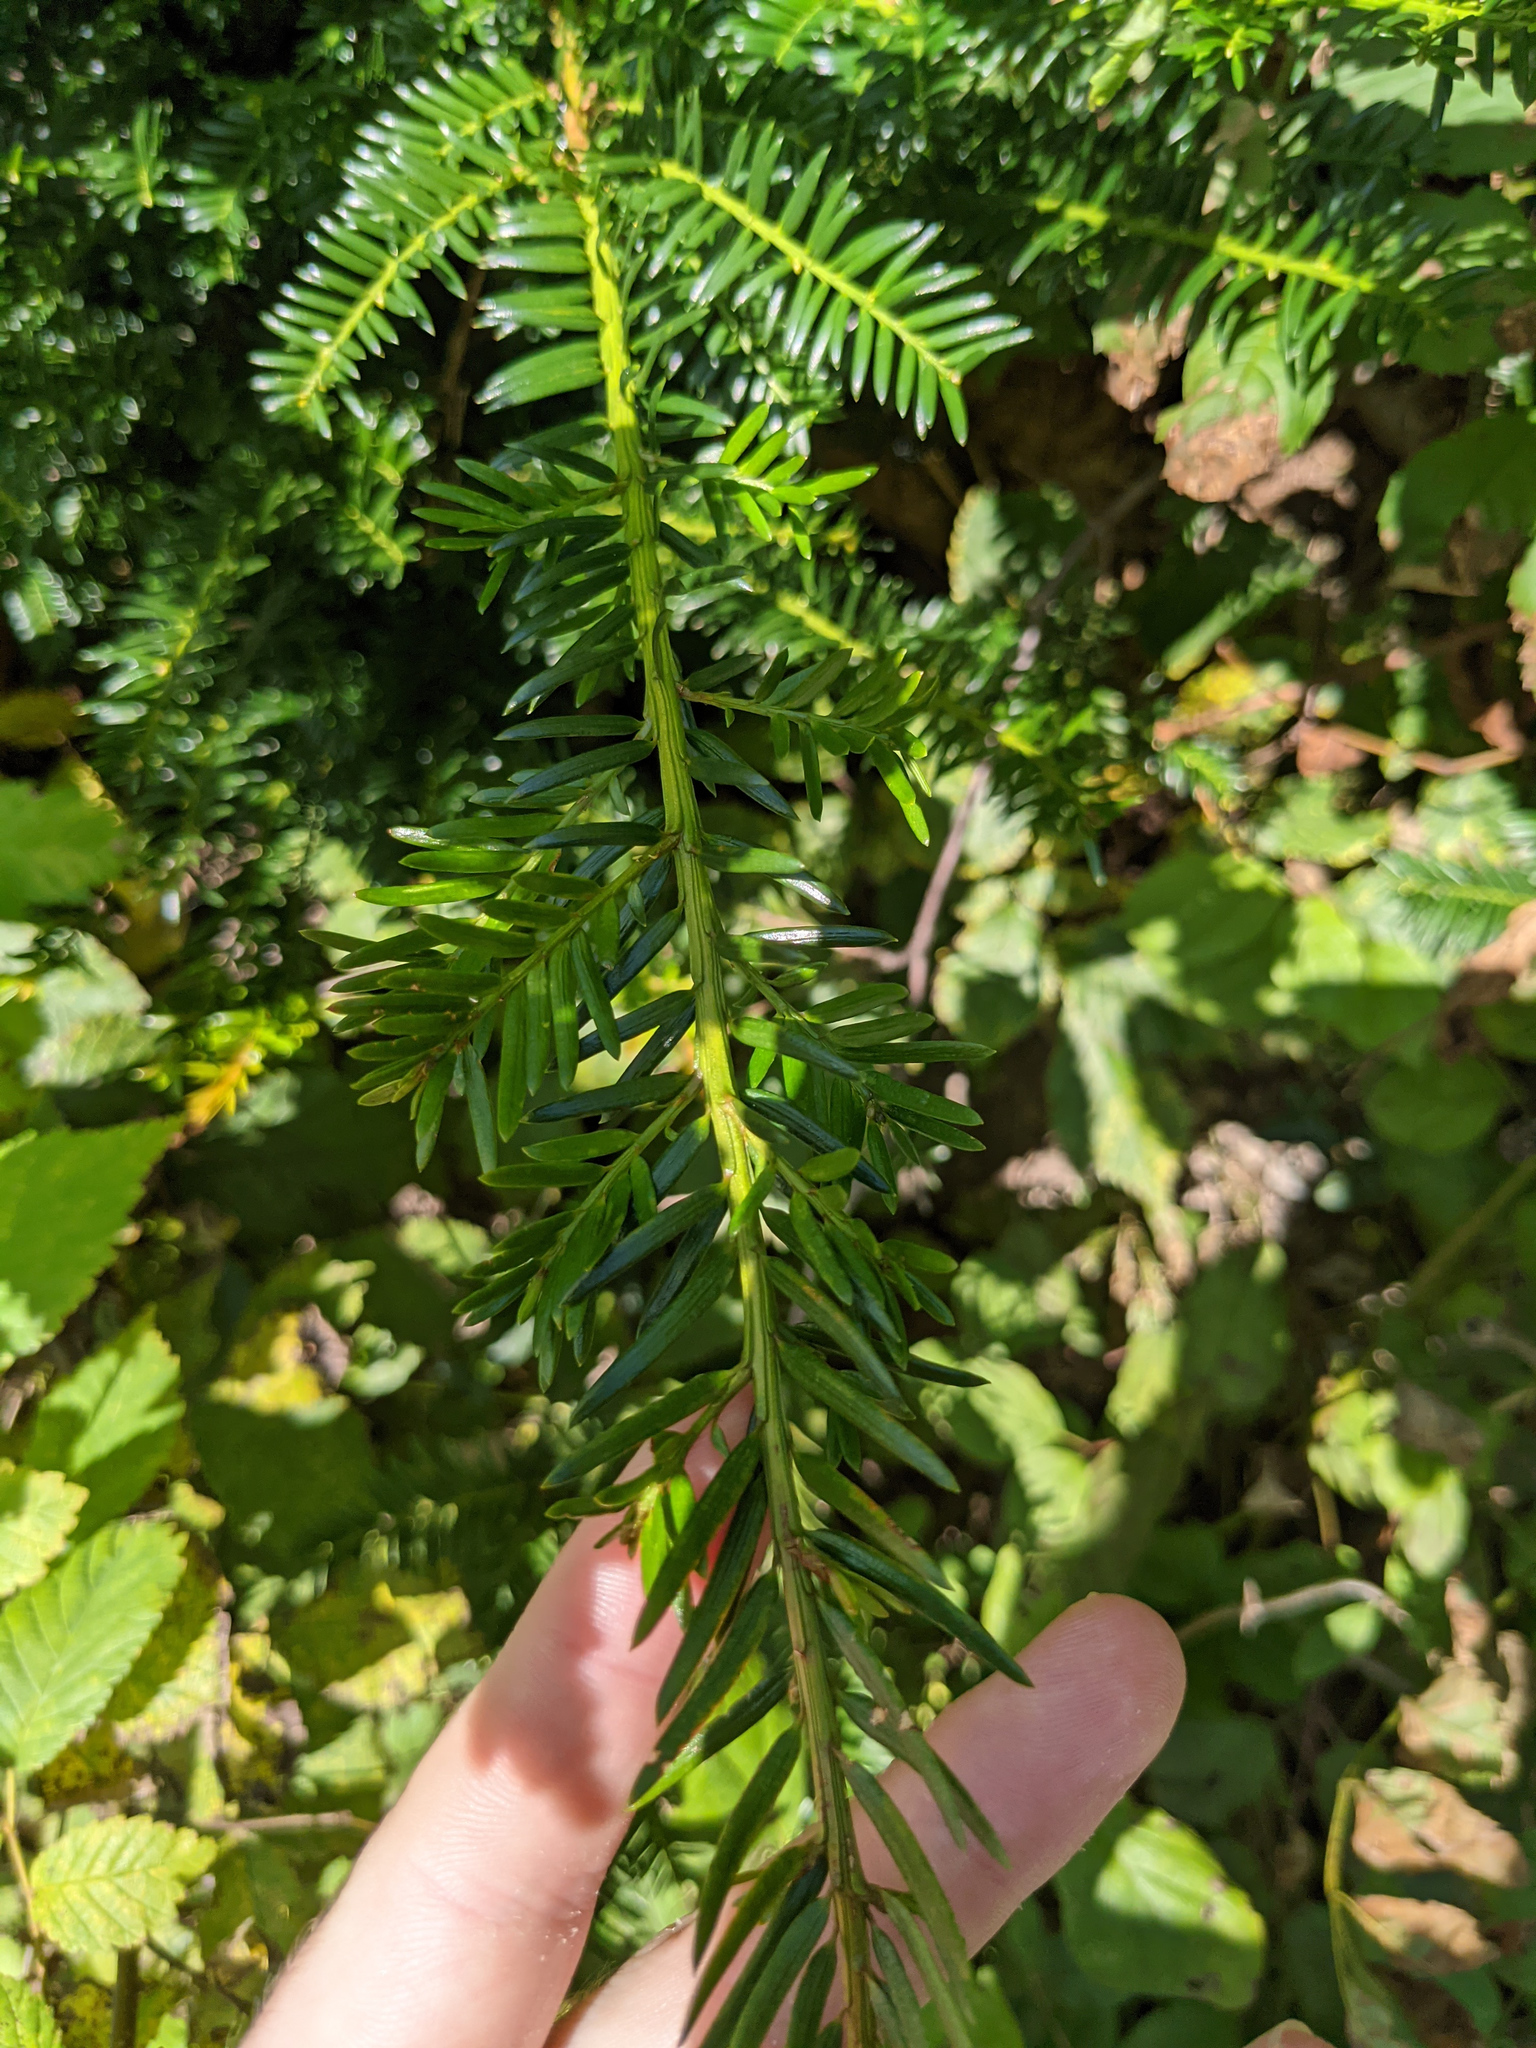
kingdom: Plantae
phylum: Tracheophyta
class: Pinopsida
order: Pinales
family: Taxaceae
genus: Taxus
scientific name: Taxus baccata
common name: Yew
